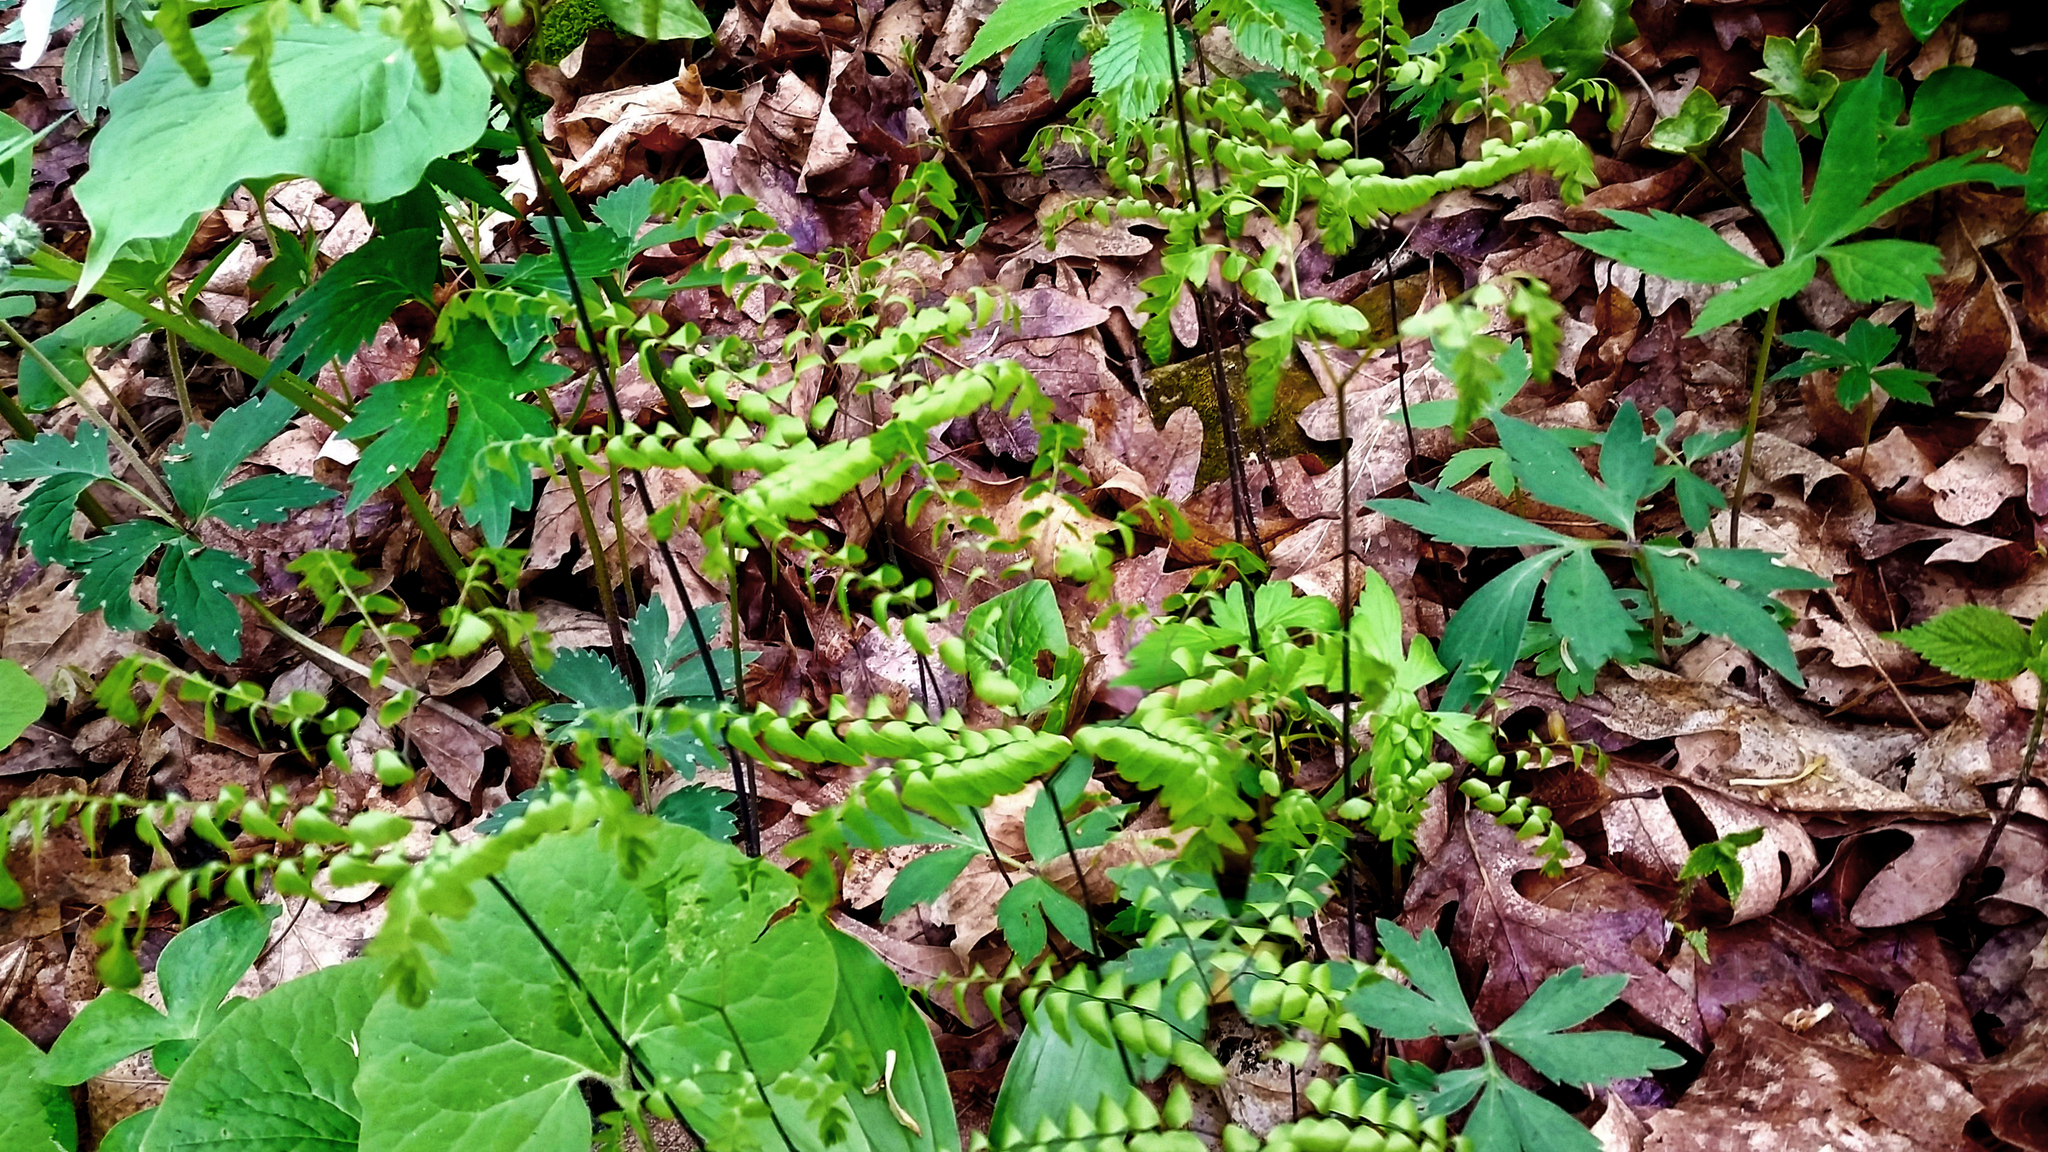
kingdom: Plantae
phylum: Tracheophyta
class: Polypodiopsida
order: Polypodiales
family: Pteridaceae
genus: Adiantum
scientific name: Adiantum pedatum
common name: Five-finger fern
